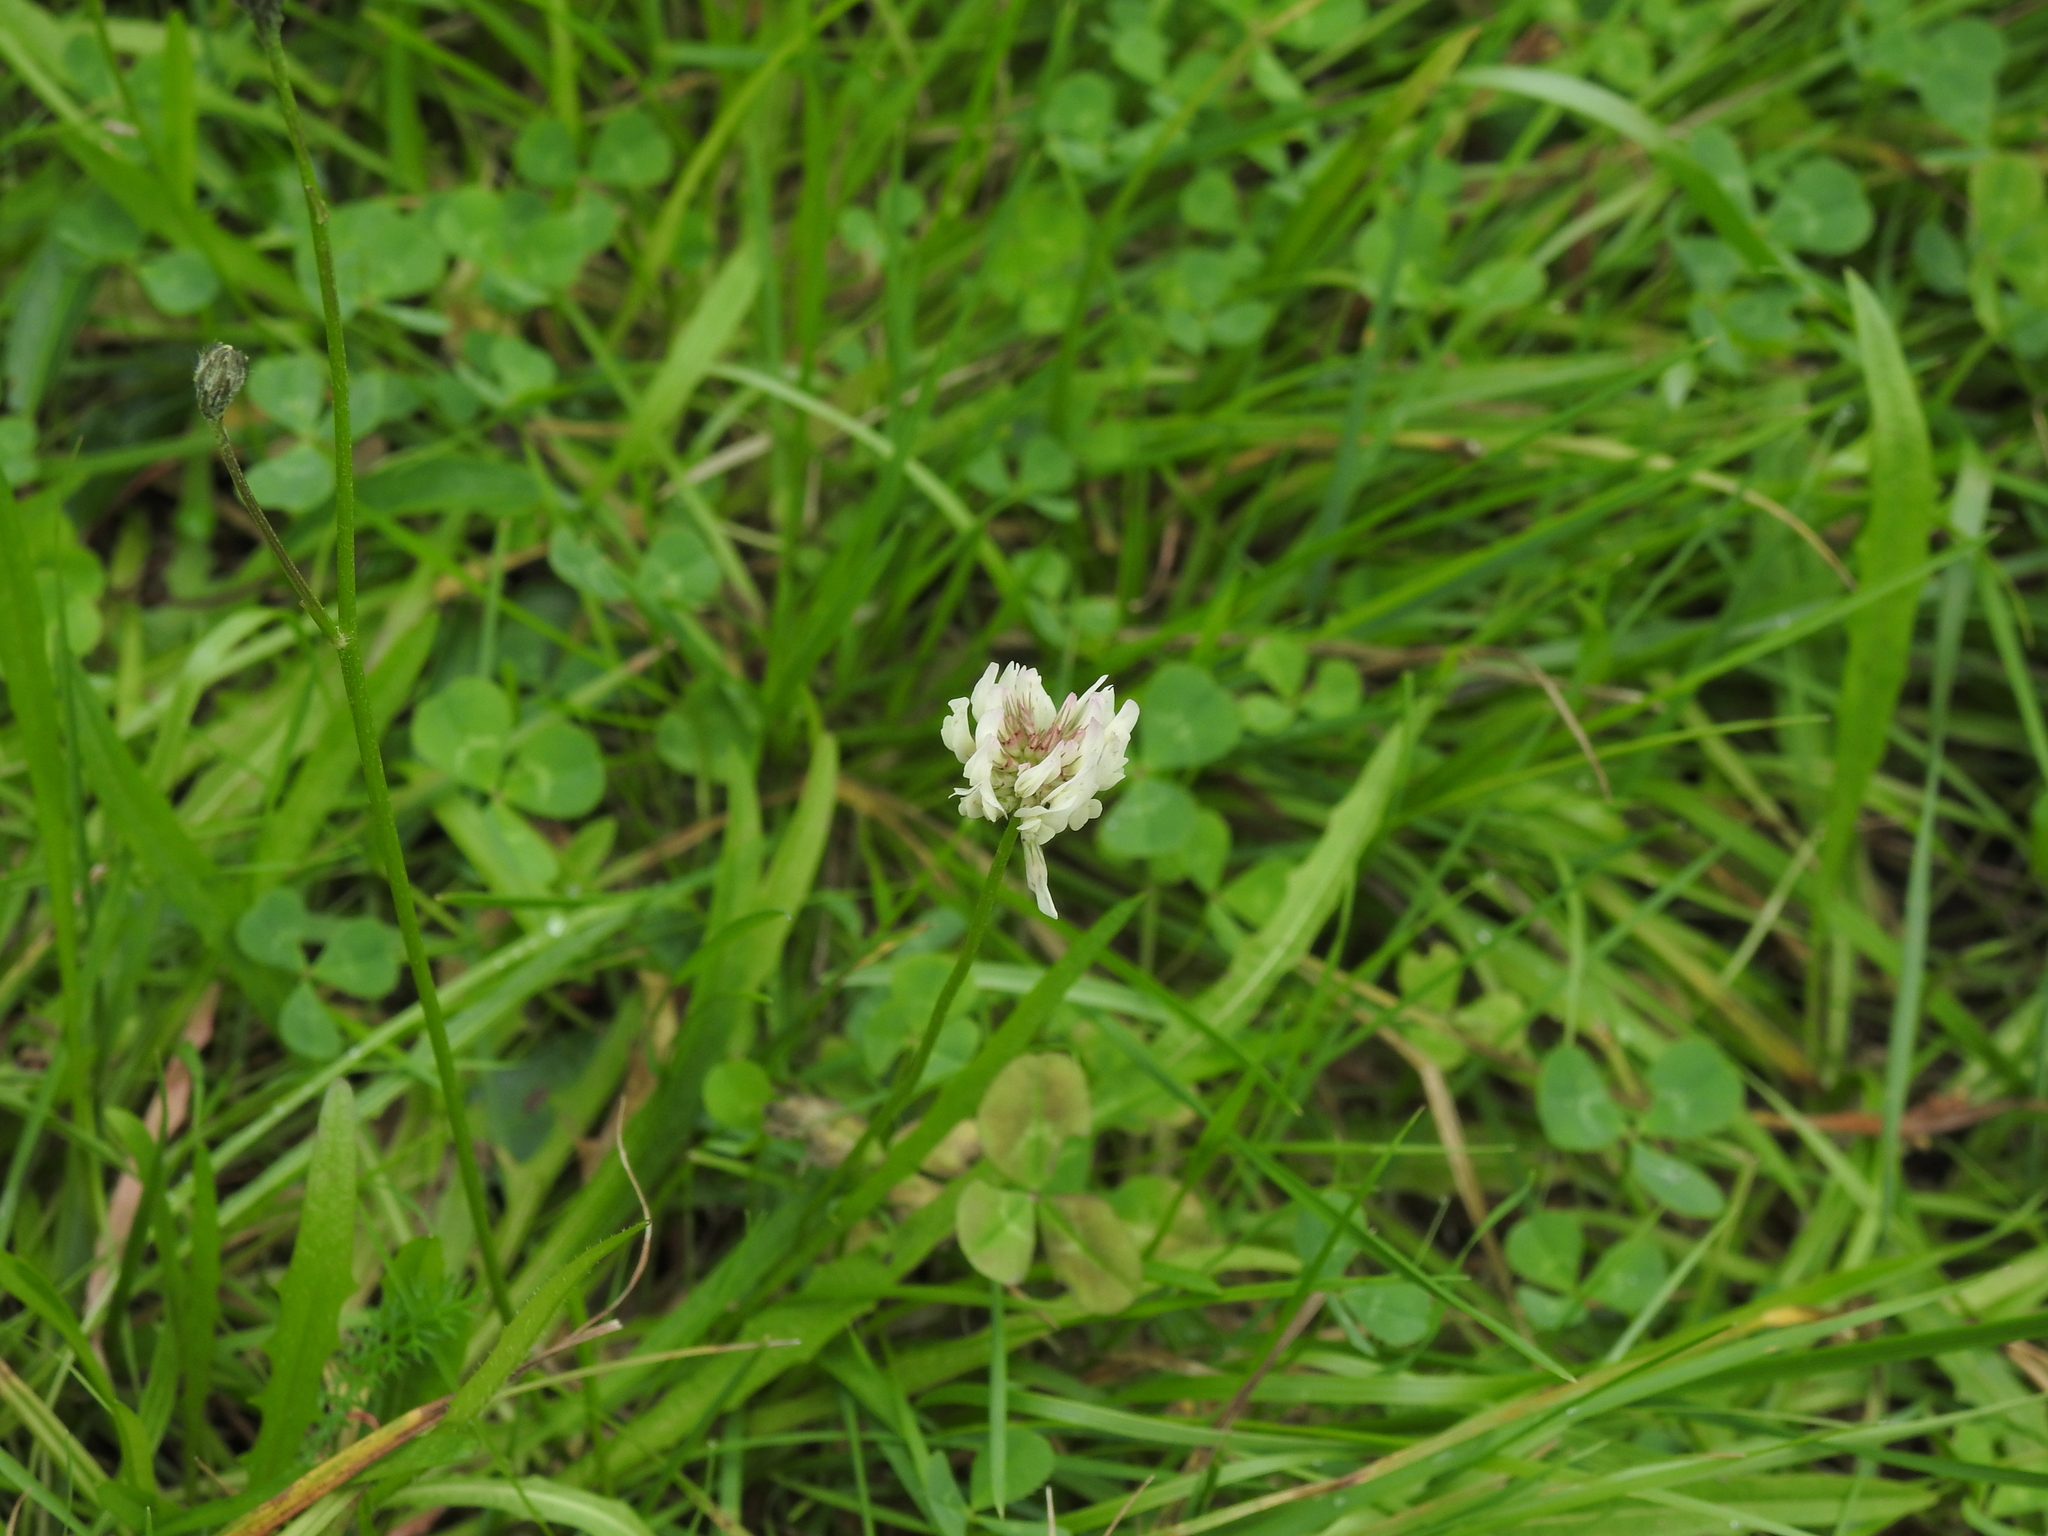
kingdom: Plantae
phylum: Tracheophyta
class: Magnoliopsida
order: Fabales
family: Fabaceae
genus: Trifolium
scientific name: Trifolium repens
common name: White clover
